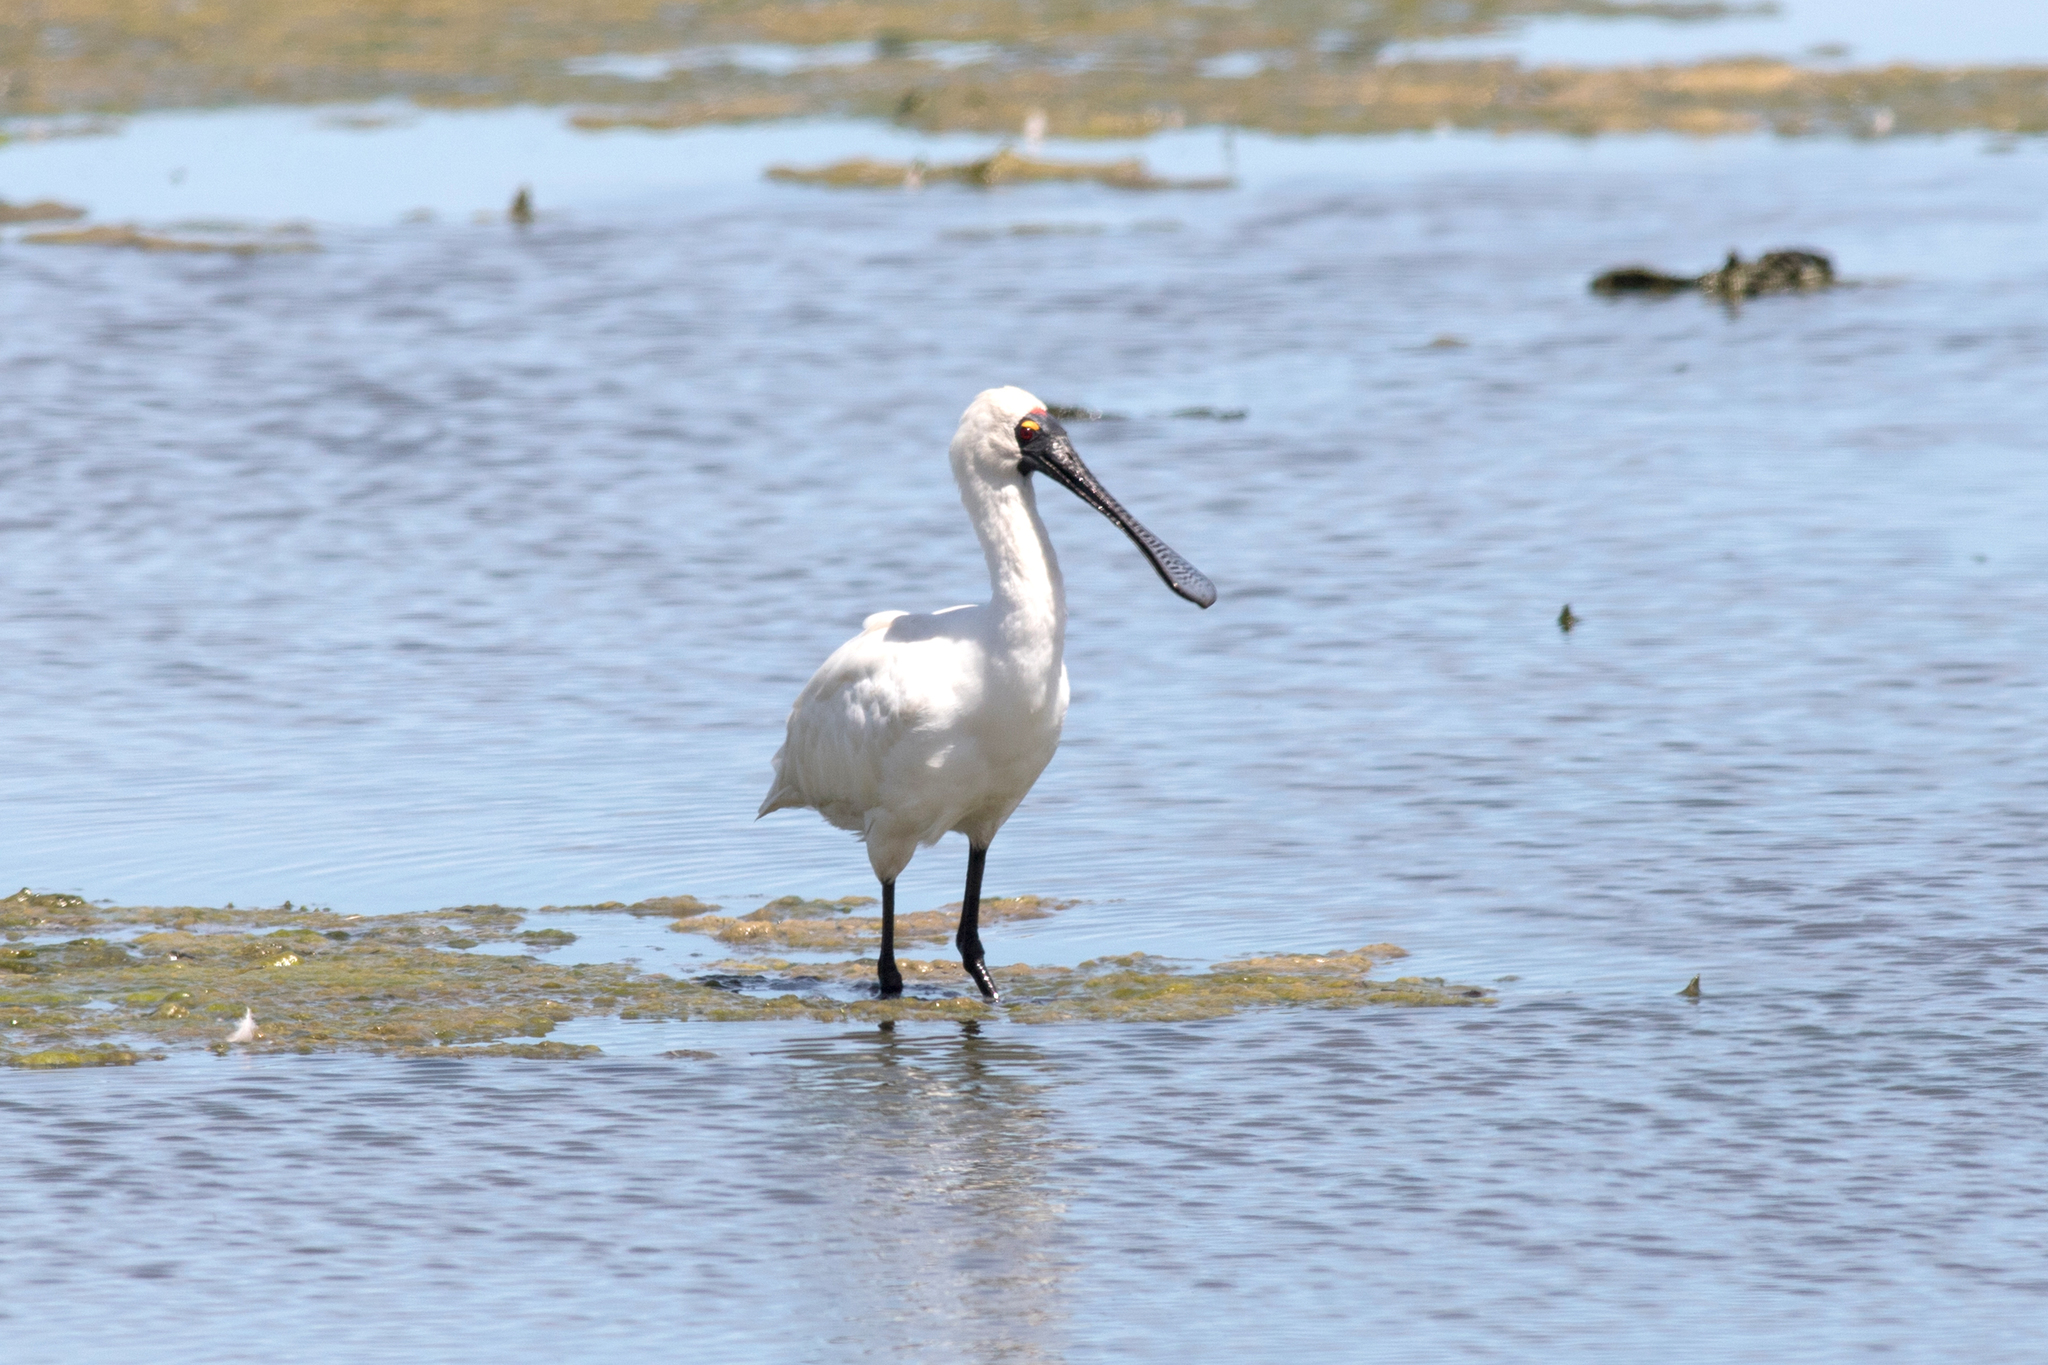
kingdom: Animalia
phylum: Chordata
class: Aves
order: Pelecaniformes
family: Threskiornithidae
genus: Platalea
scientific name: Platalea regia
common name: Royal spoonbill
